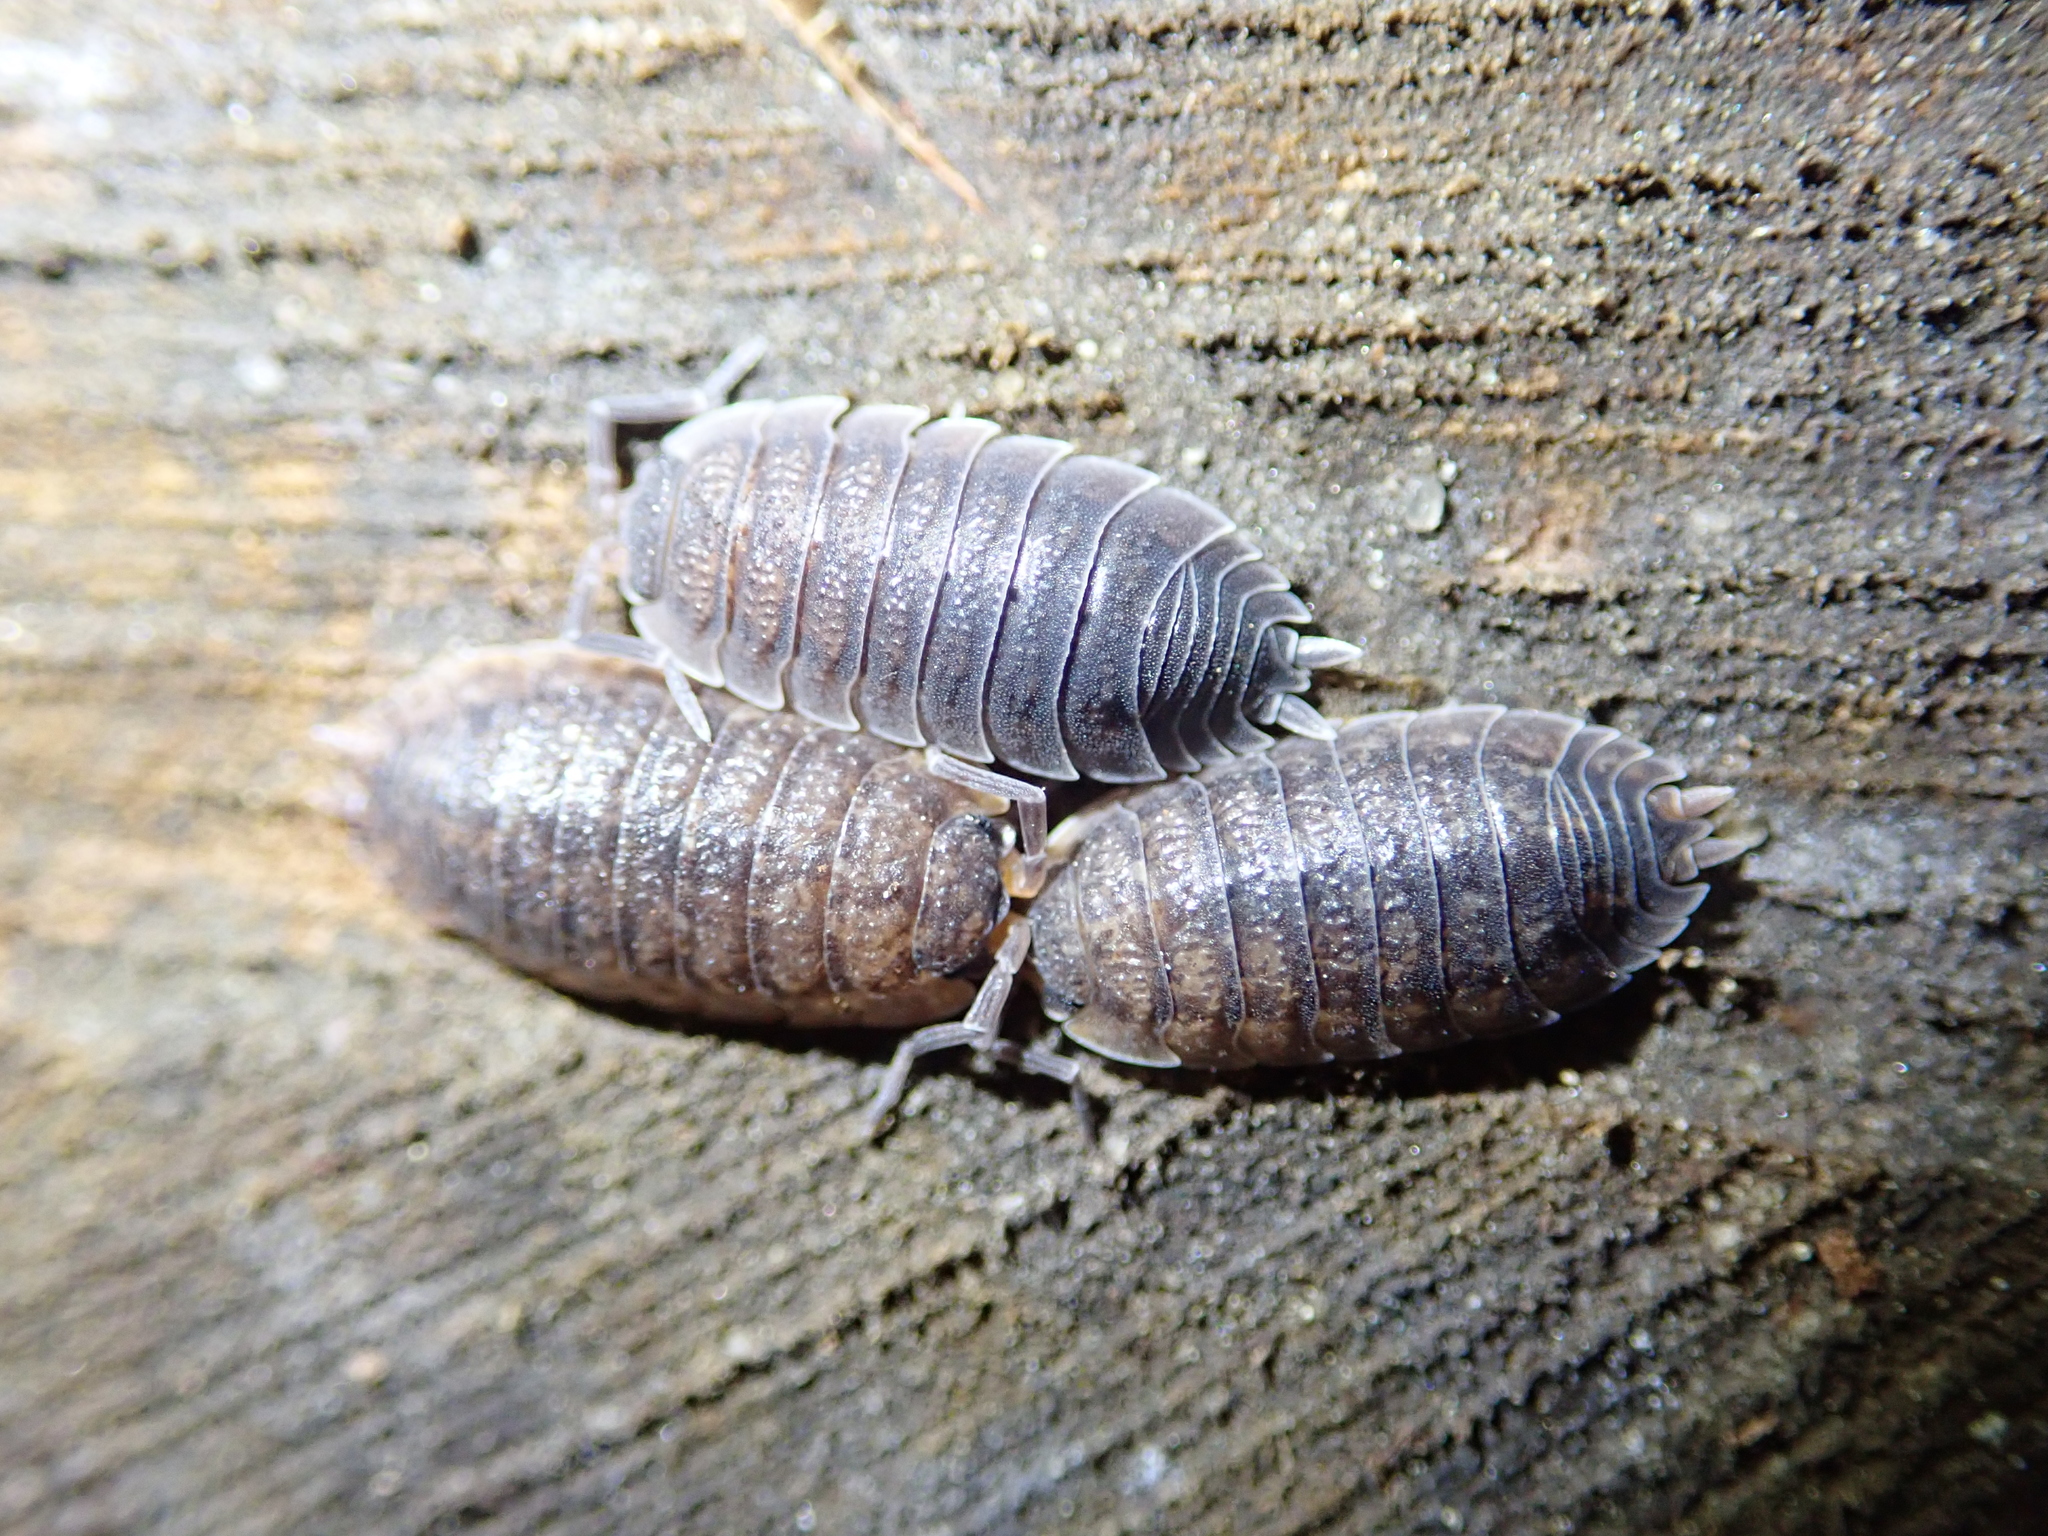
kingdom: Animalia
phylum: Arthropoda
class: Malacostraca
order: Isopoda
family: Porcellionidae
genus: Porcellio
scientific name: Porcellio scaber
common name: Common rough woodlouse
